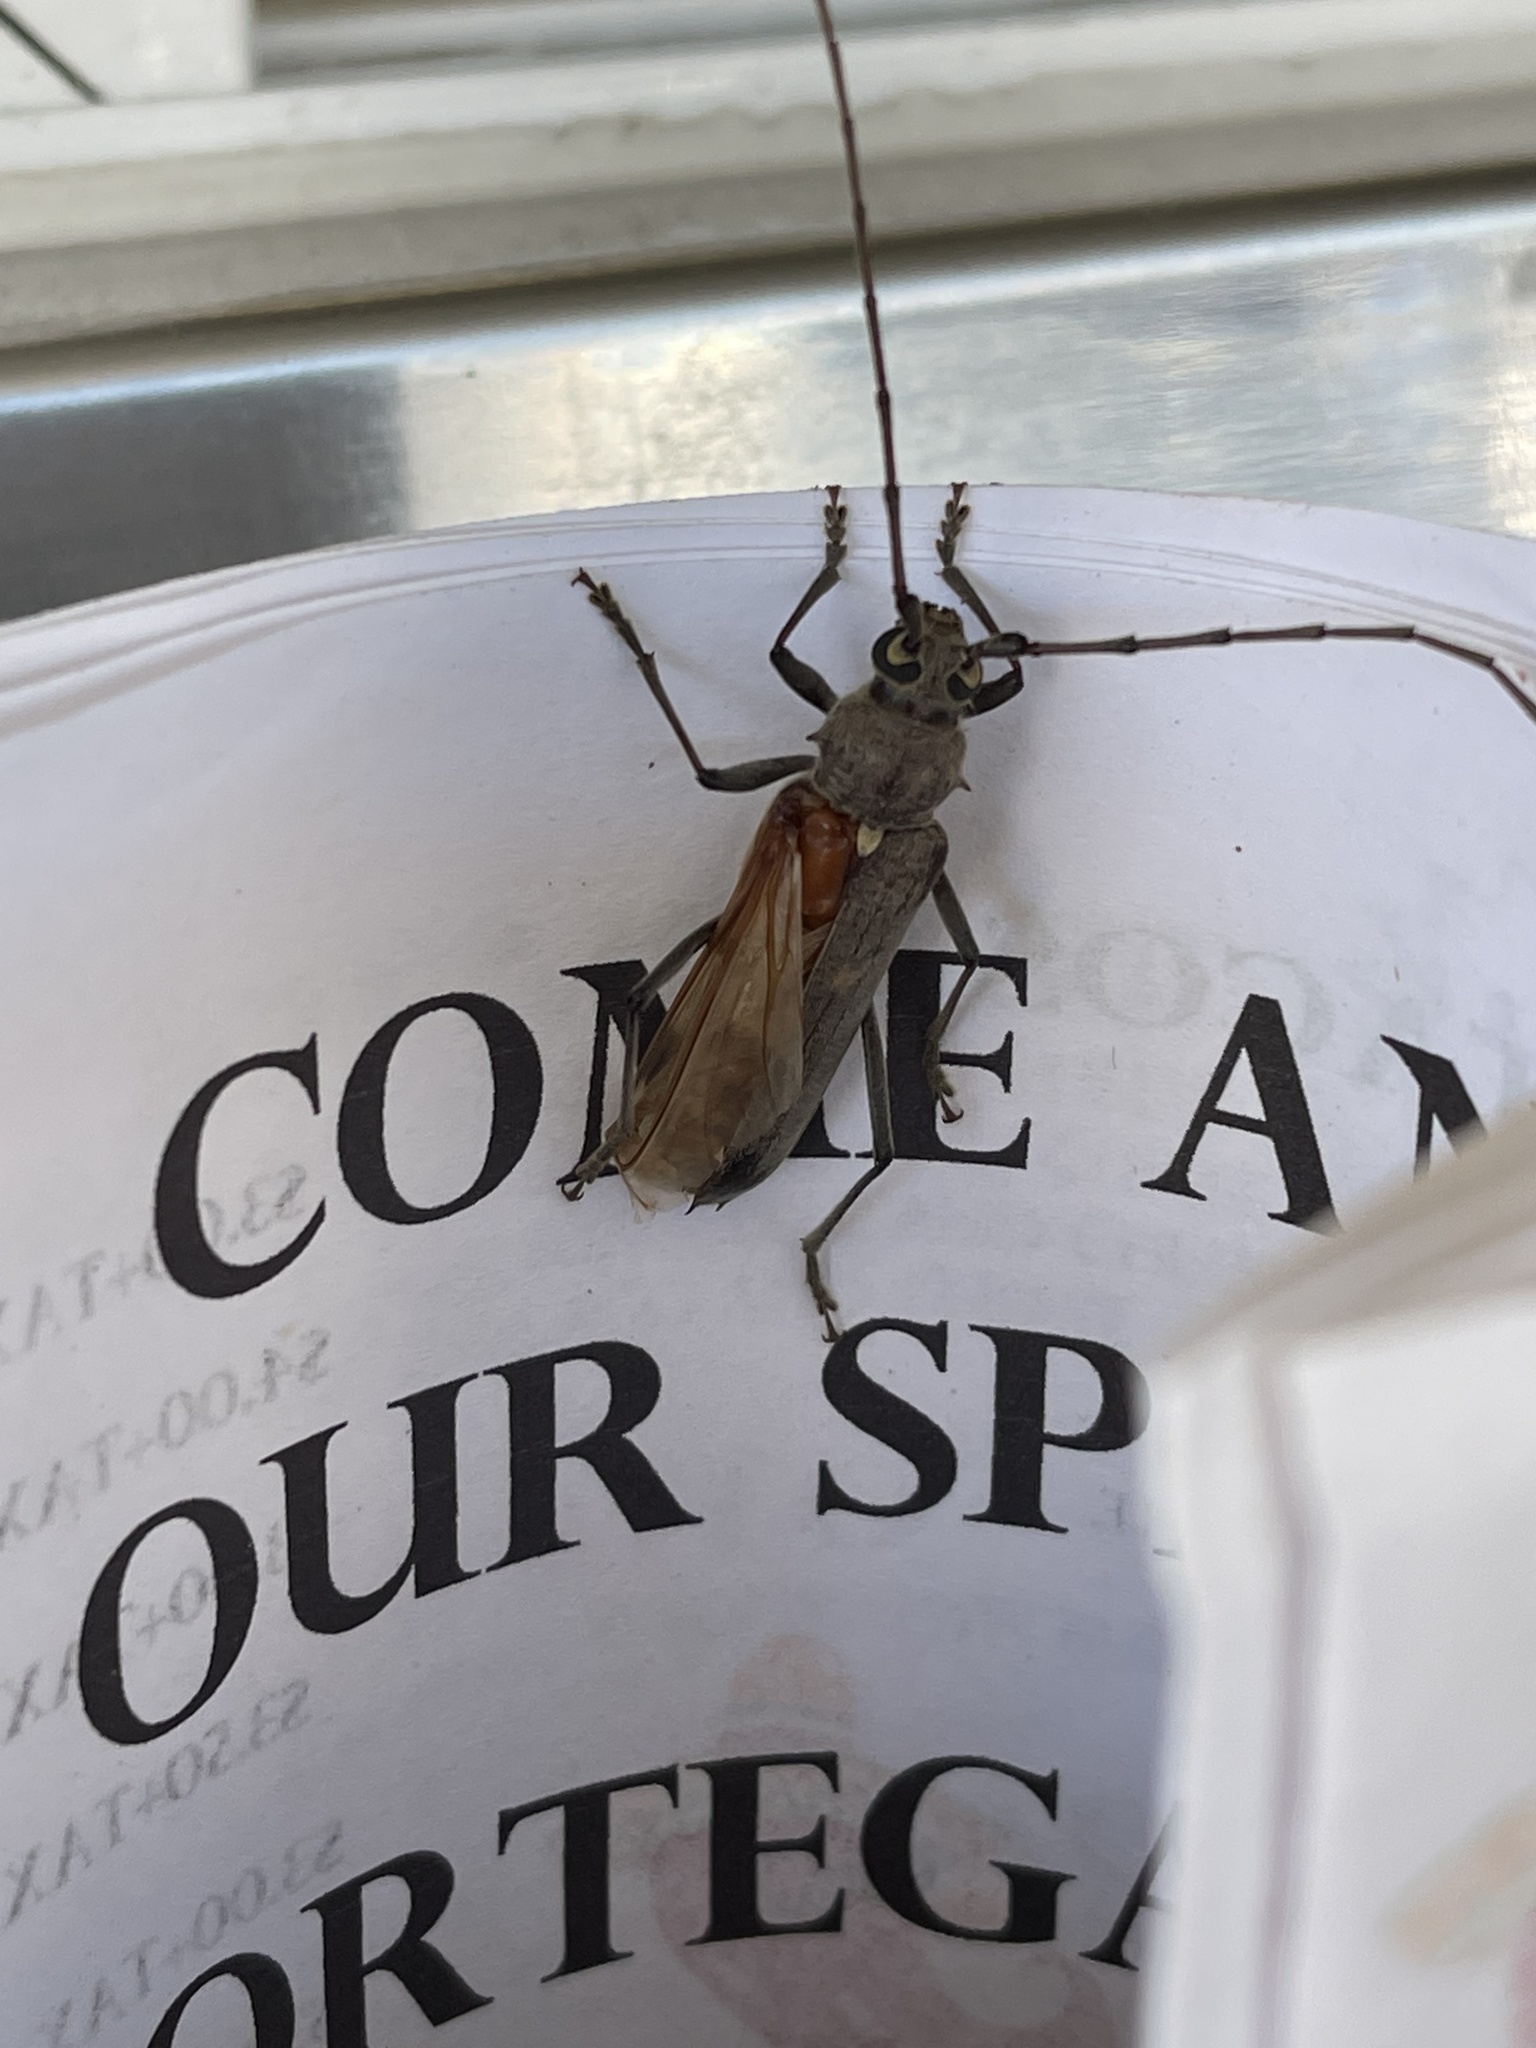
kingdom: Animalia
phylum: Arthropoda
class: Insecta
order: Coleoptera
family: Cerambycidae
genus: Knulliana
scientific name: Knulliana cincta
